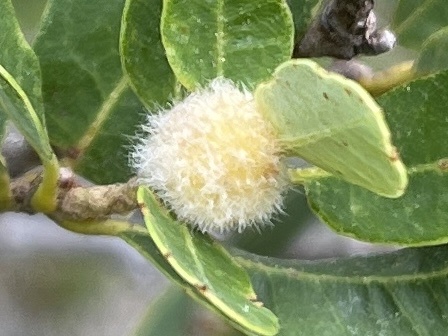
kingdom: Animalia
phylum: Arthropoda
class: Insecta
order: Hymenoptera
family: Cynipidae
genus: Disholandricus
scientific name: Disholandricus
